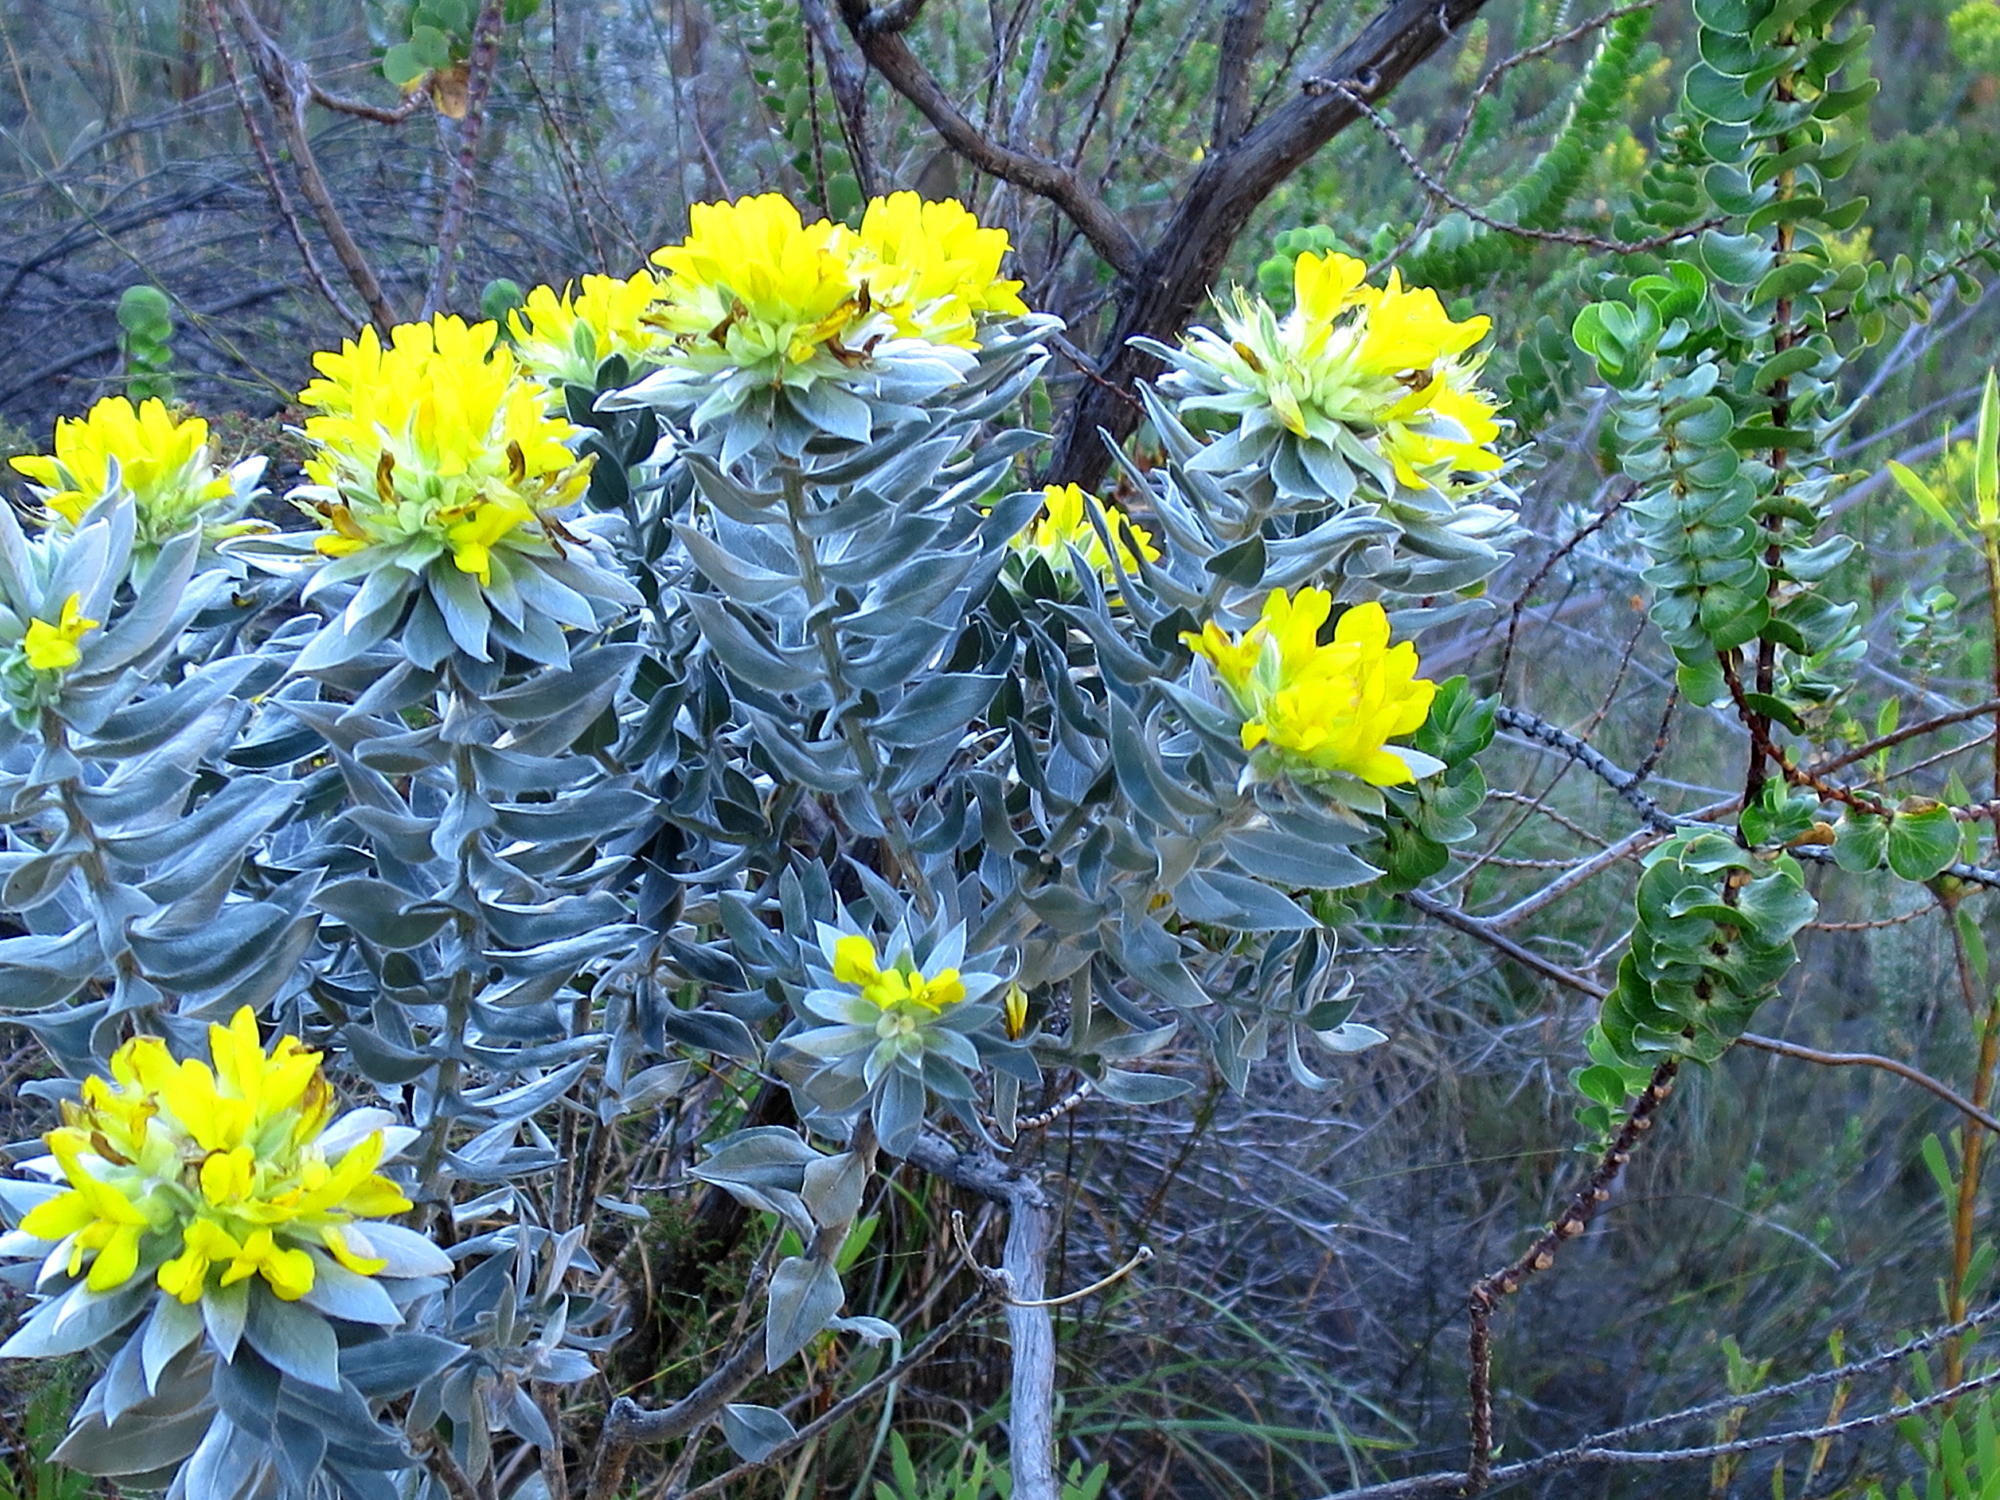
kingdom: Plantae
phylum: Tracheophyta
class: Magnoliopsida
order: Fabales
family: Fabaceae
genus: Xiphotheca
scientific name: Xiphotheca fruticosa
